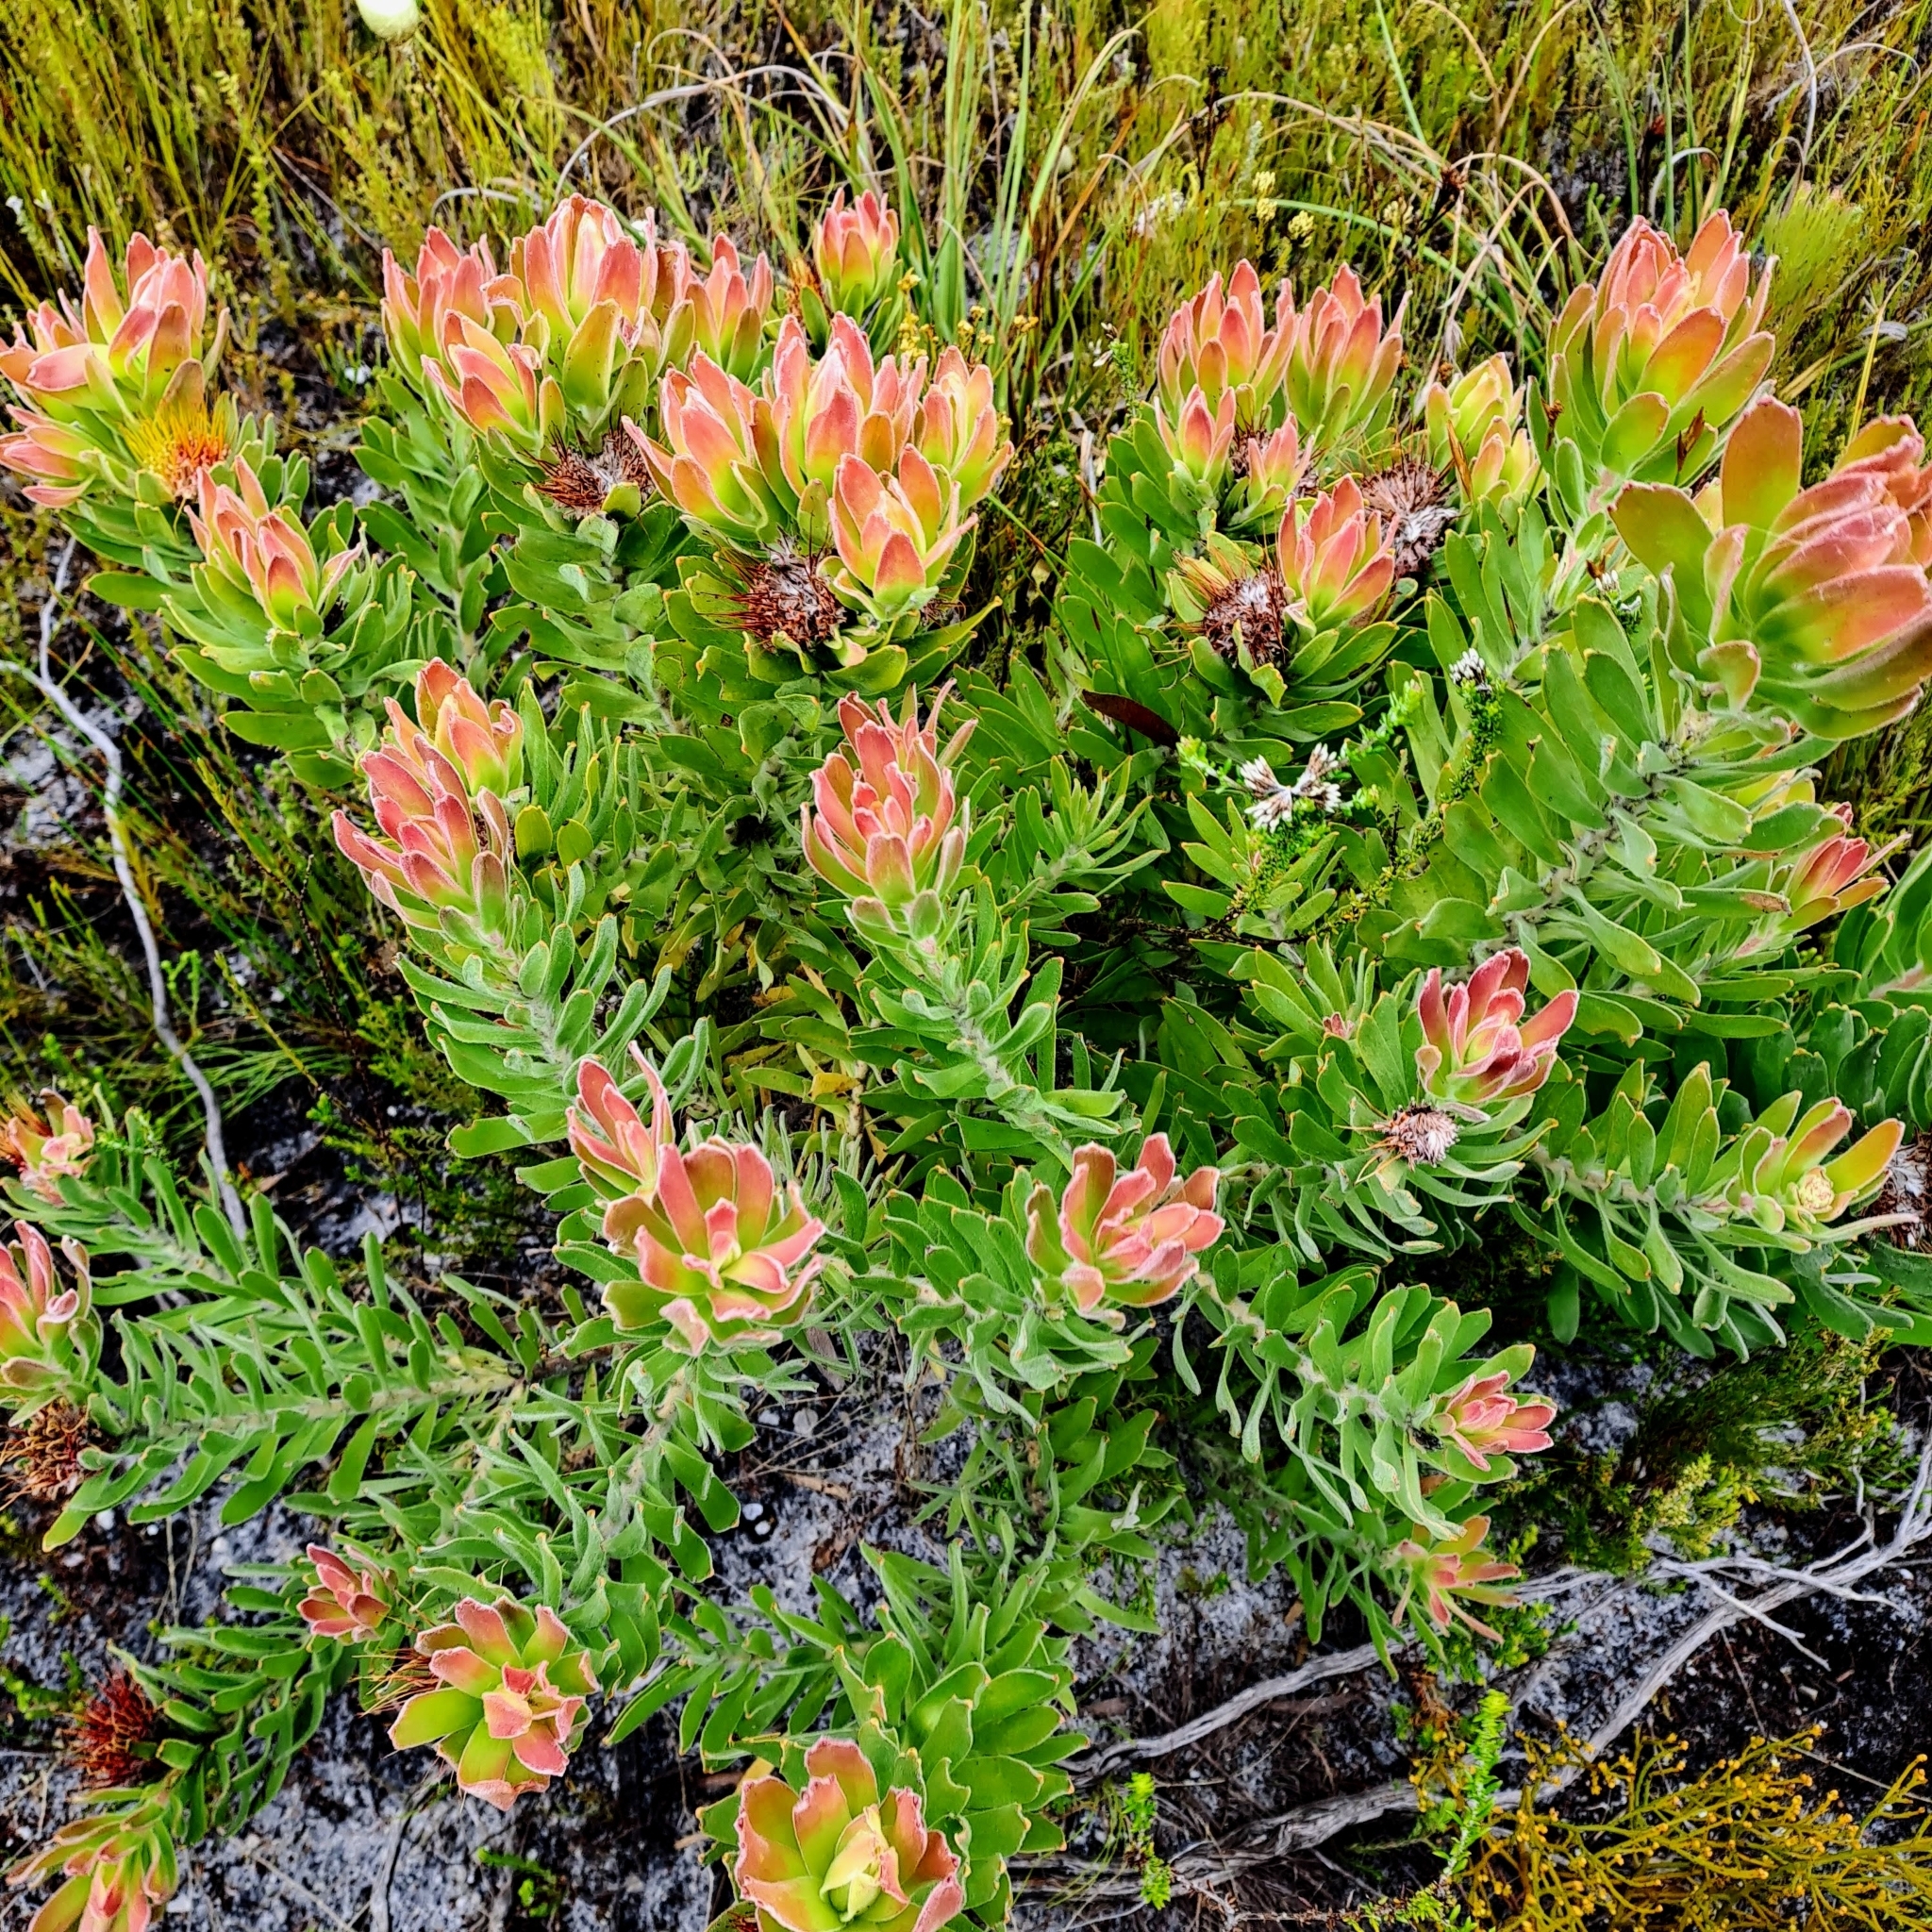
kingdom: Plantae
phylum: Tracheophyta
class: Magnoliopsida
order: Proteales
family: Proteaceae
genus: Leucospermum
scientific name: Leucospermum oleifolium
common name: Matches
